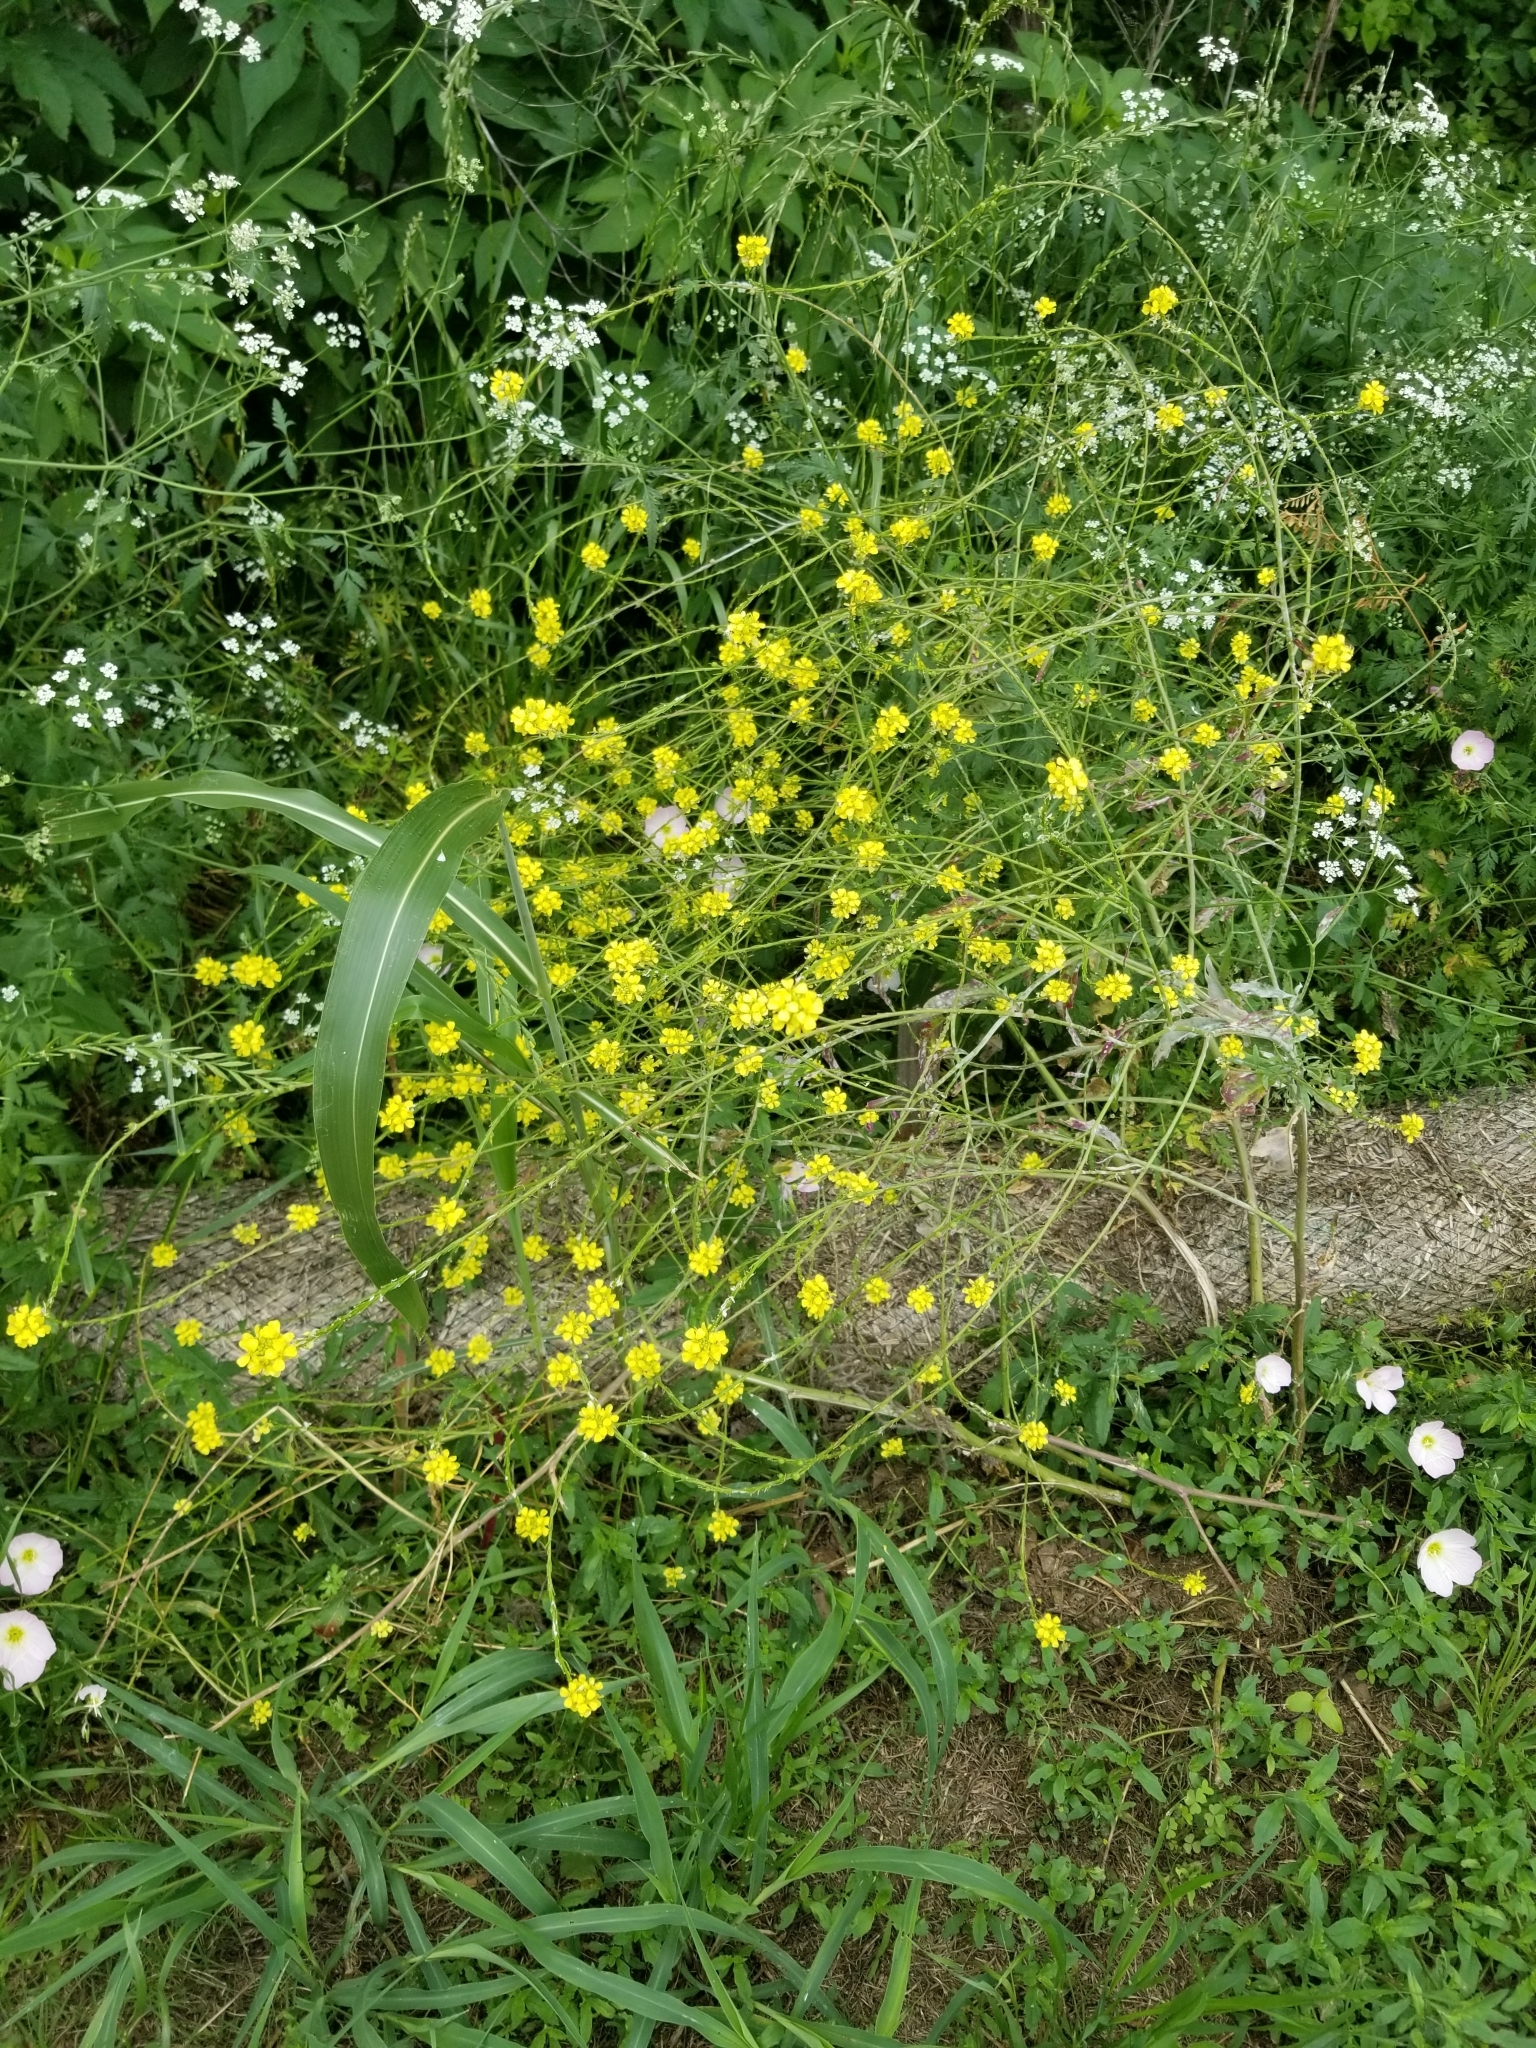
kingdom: Plantae
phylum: Tracheophyta
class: Magnoliopsida
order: Brassicales
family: Brassicaceae
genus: Rapistrum
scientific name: Rapistrum rugosum
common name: Annual bastardcabbage
